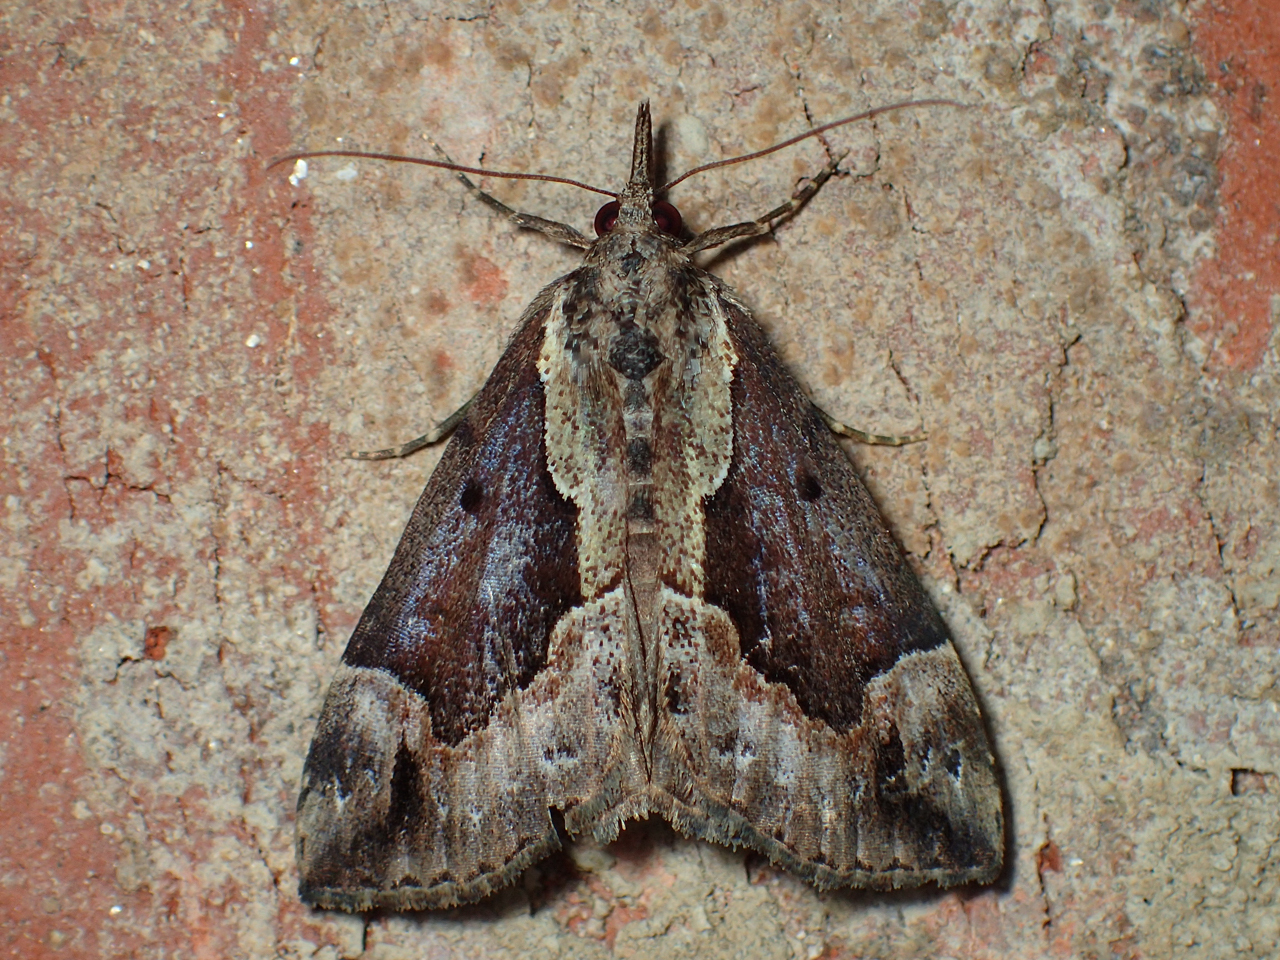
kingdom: Animalia
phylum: Arthropoda
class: Insecta
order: Lepidoptera
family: Erebidae
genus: Hypena
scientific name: Hypena baltimoralis
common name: Baltimore snout
